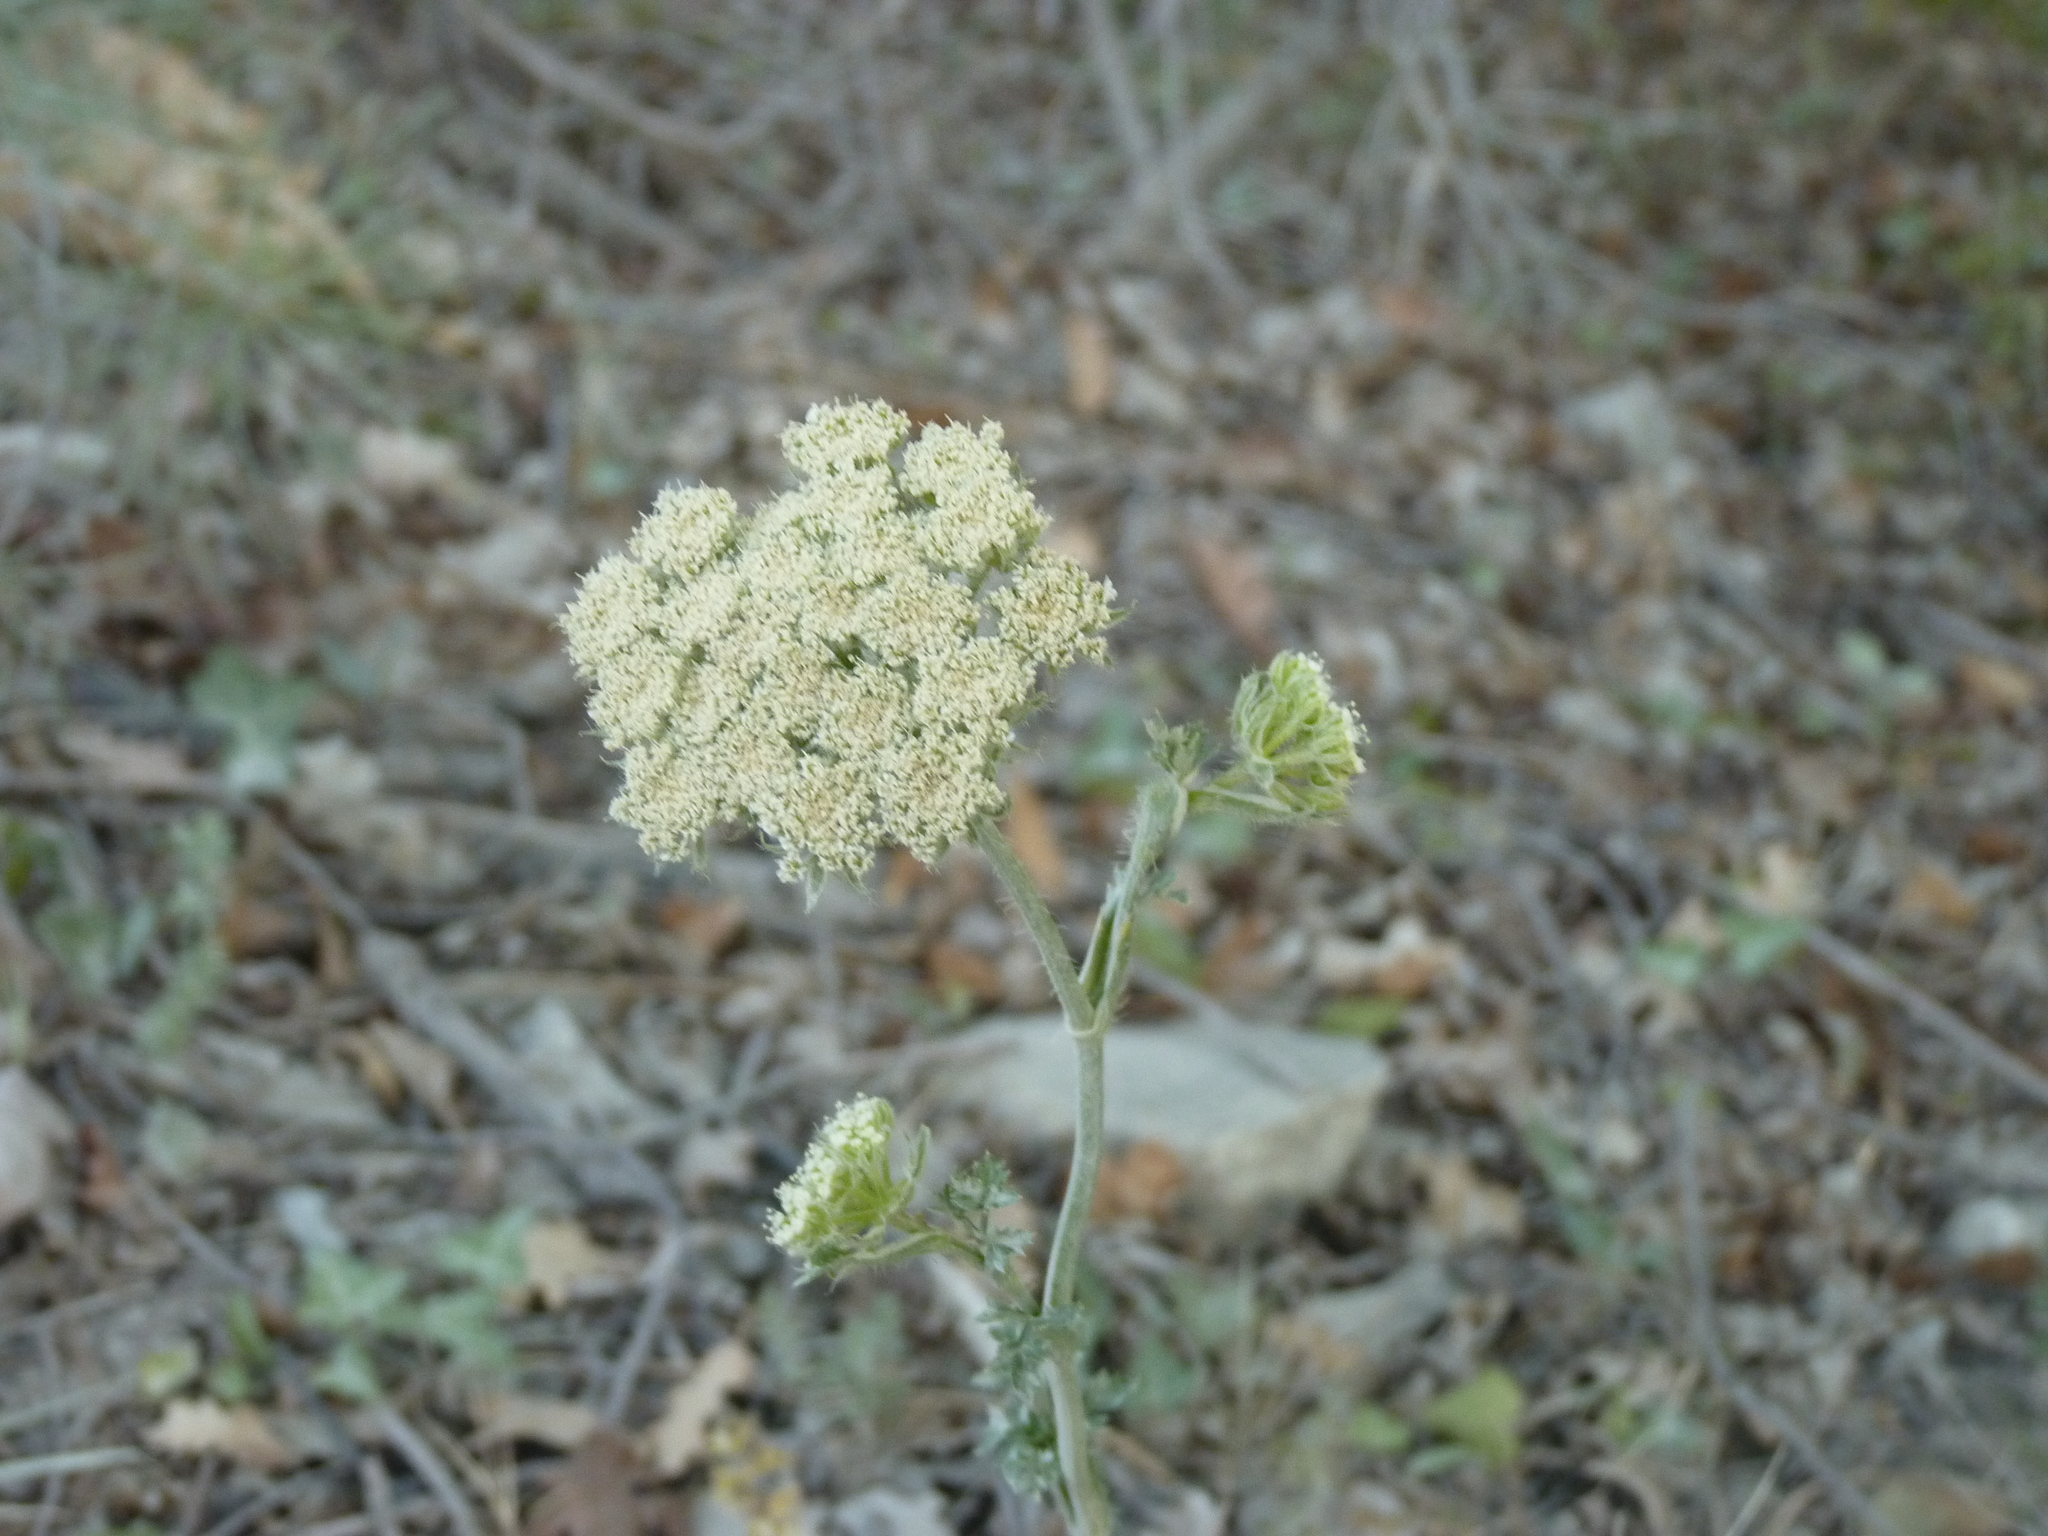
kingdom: Plantae
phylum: Tracheophyta
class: Magnoliopsida
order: Apiales
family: Apiaceae
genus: Silphiodaucus
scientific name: Silphiodaucus hispidus
